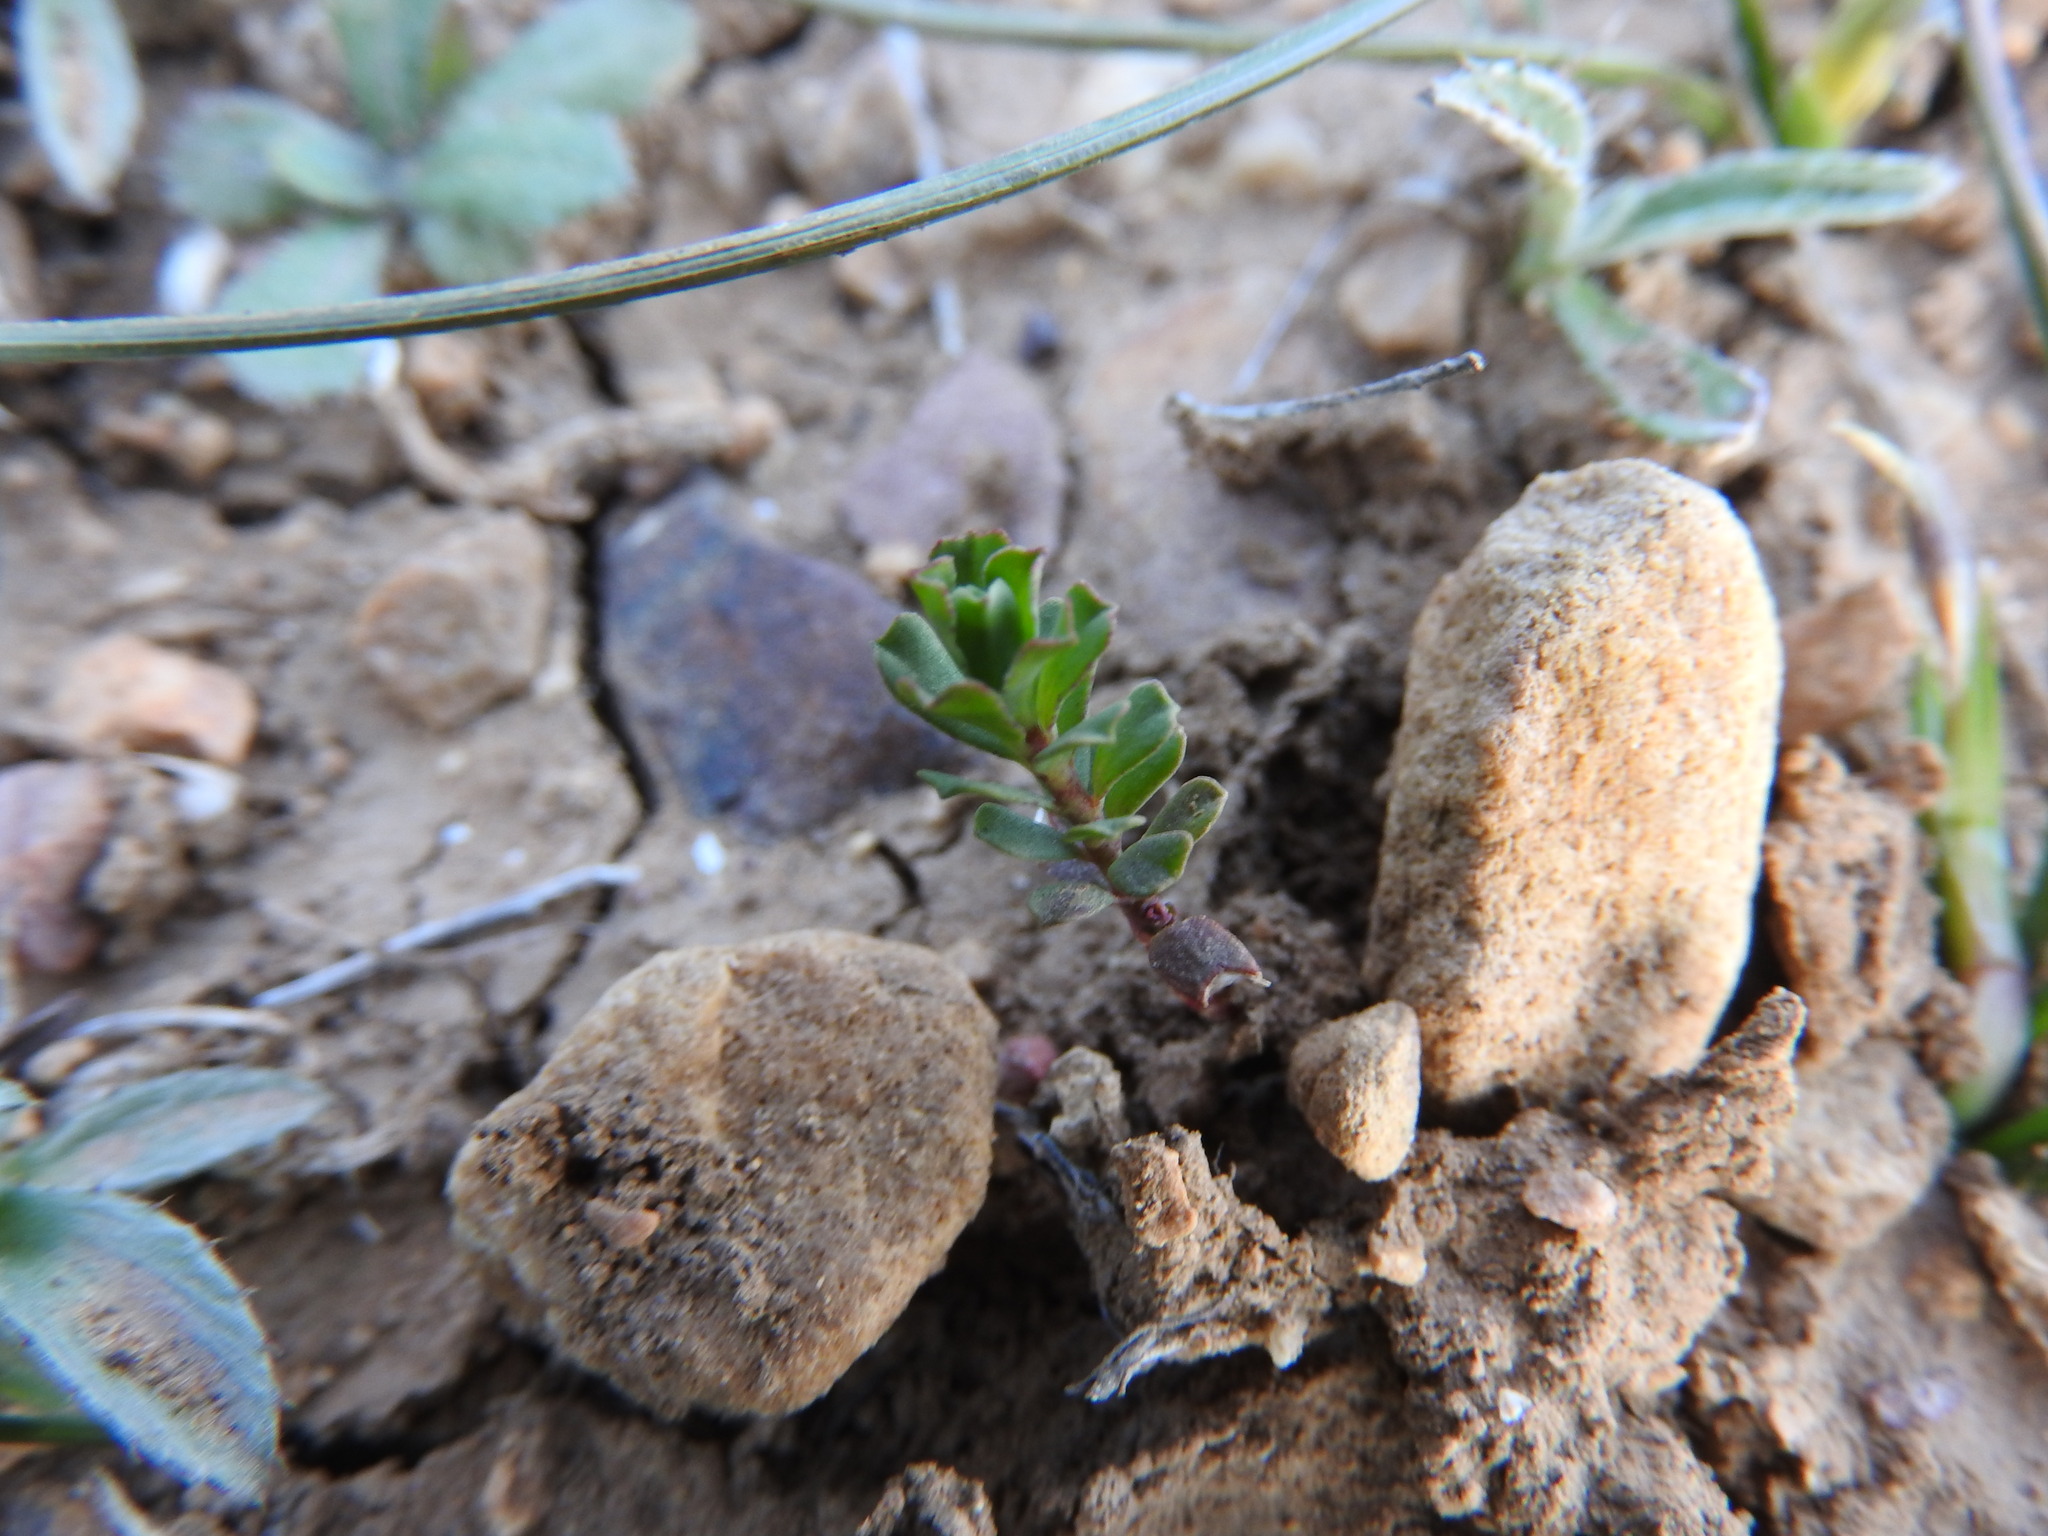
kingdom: Plantae
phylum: Tracheophyta
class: Magnoliopsida
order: Malpighiales
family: Euphorbiaceae
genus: Euphorbia
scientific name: Euphorbia falcata
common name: Sickle spurge
